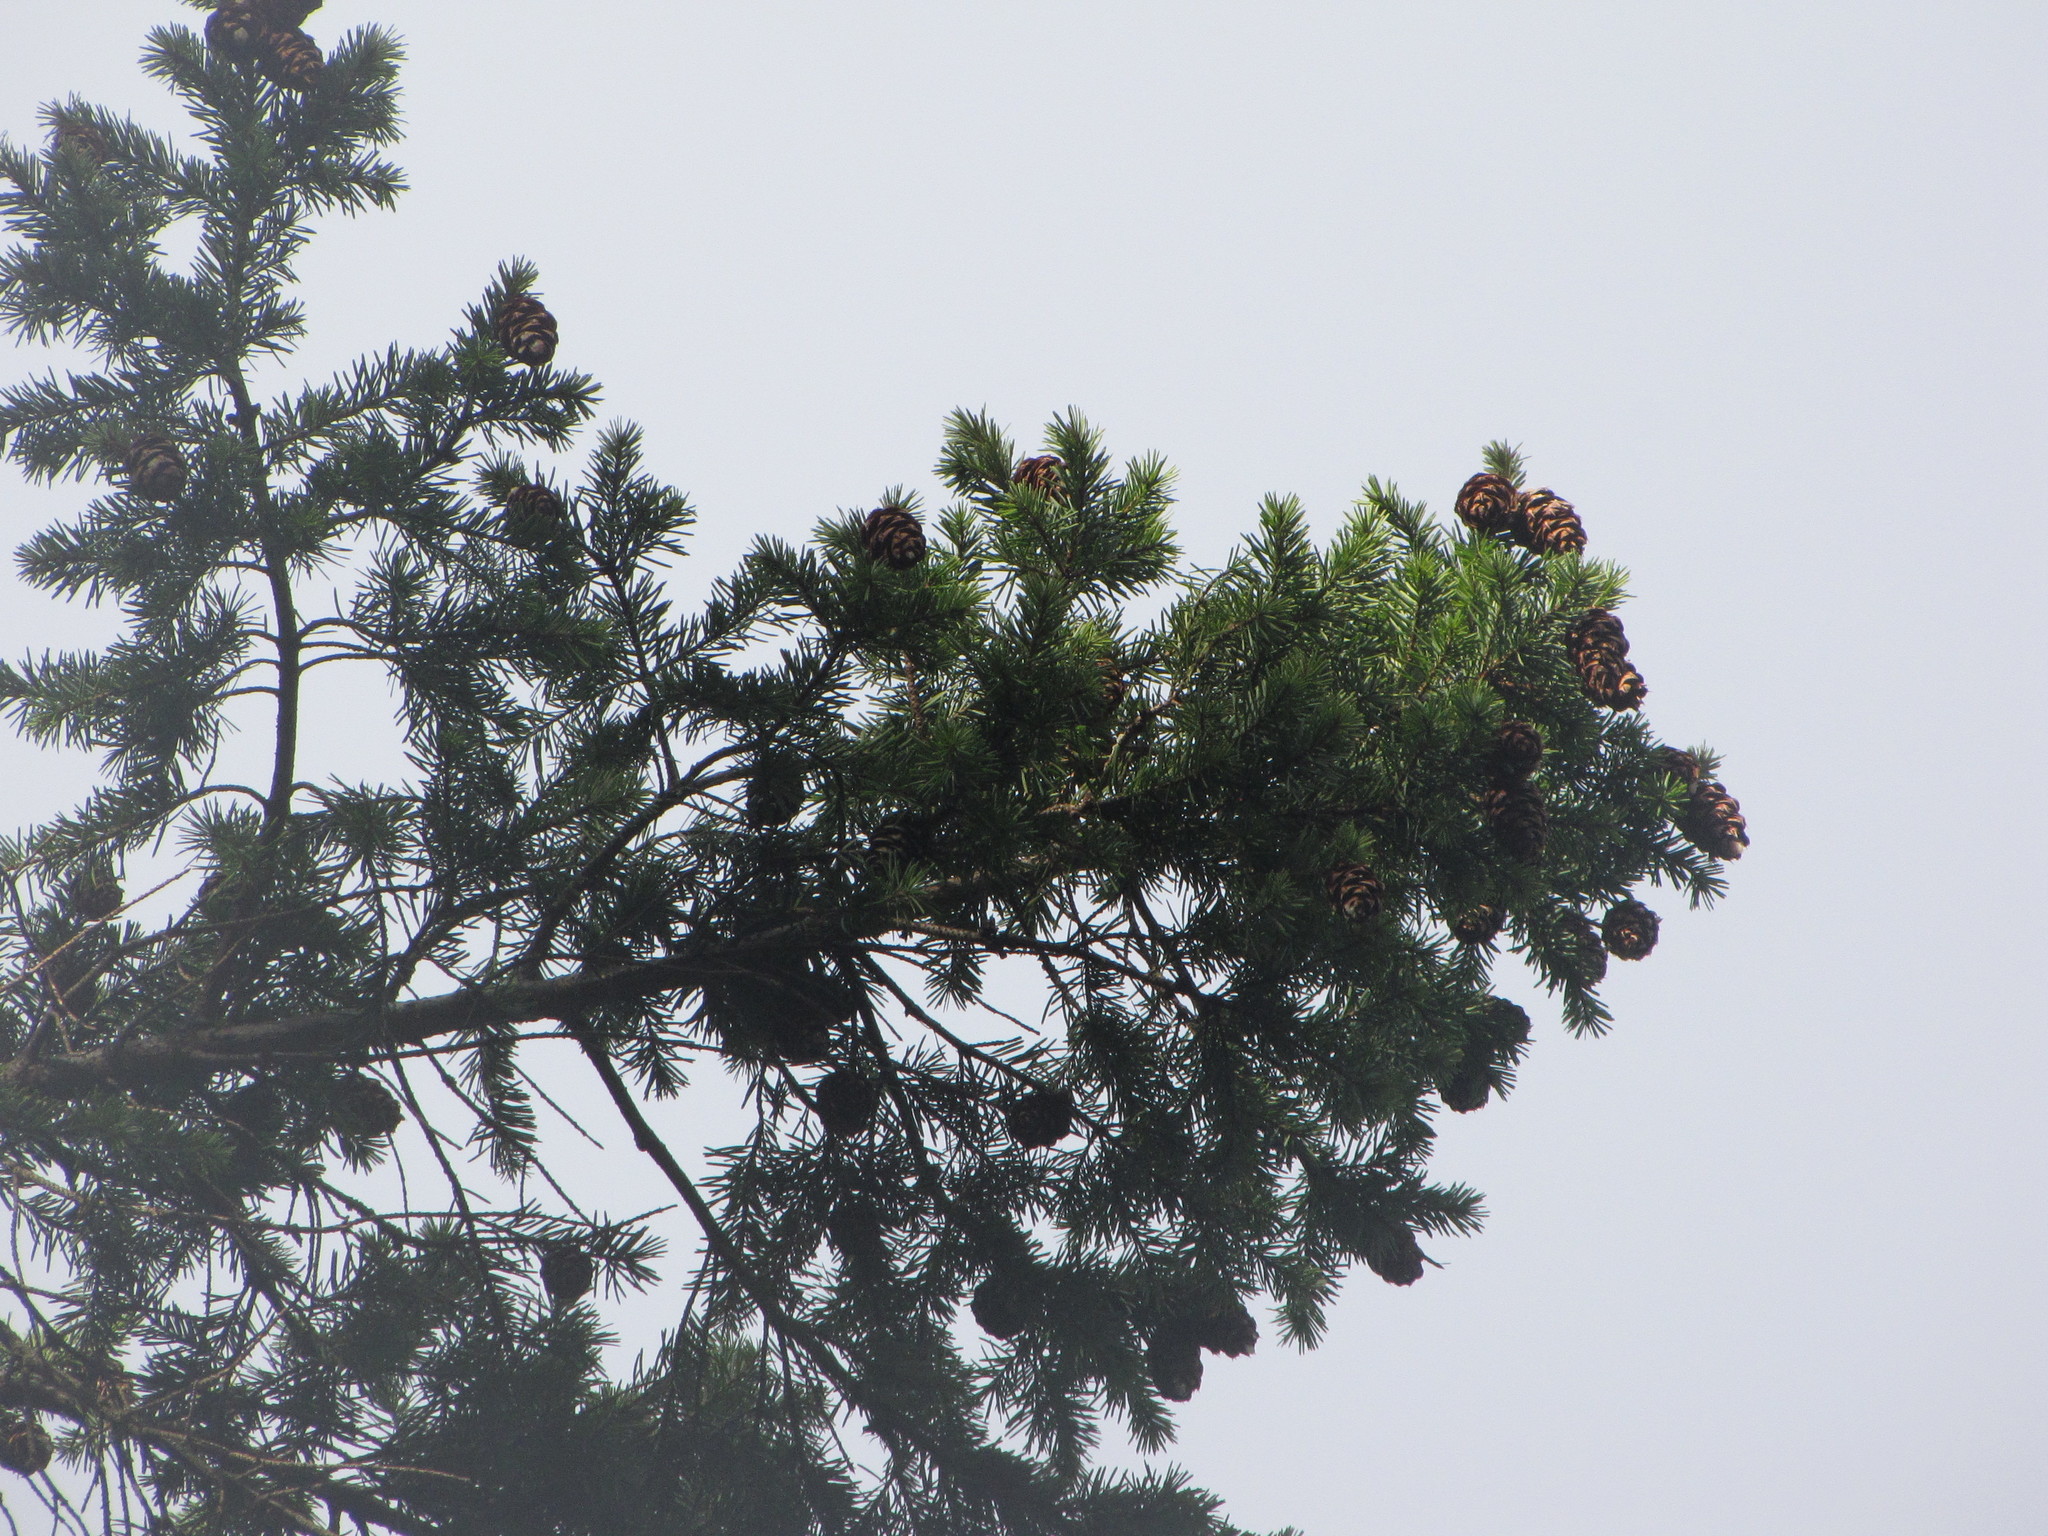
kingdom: Plantae
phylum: Tracheophyta
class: Pinopsida
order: Pinales
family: Pinaceae
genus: Pseudotsuga
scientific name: Pseudotsuga menziesii
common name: Douglas fir
